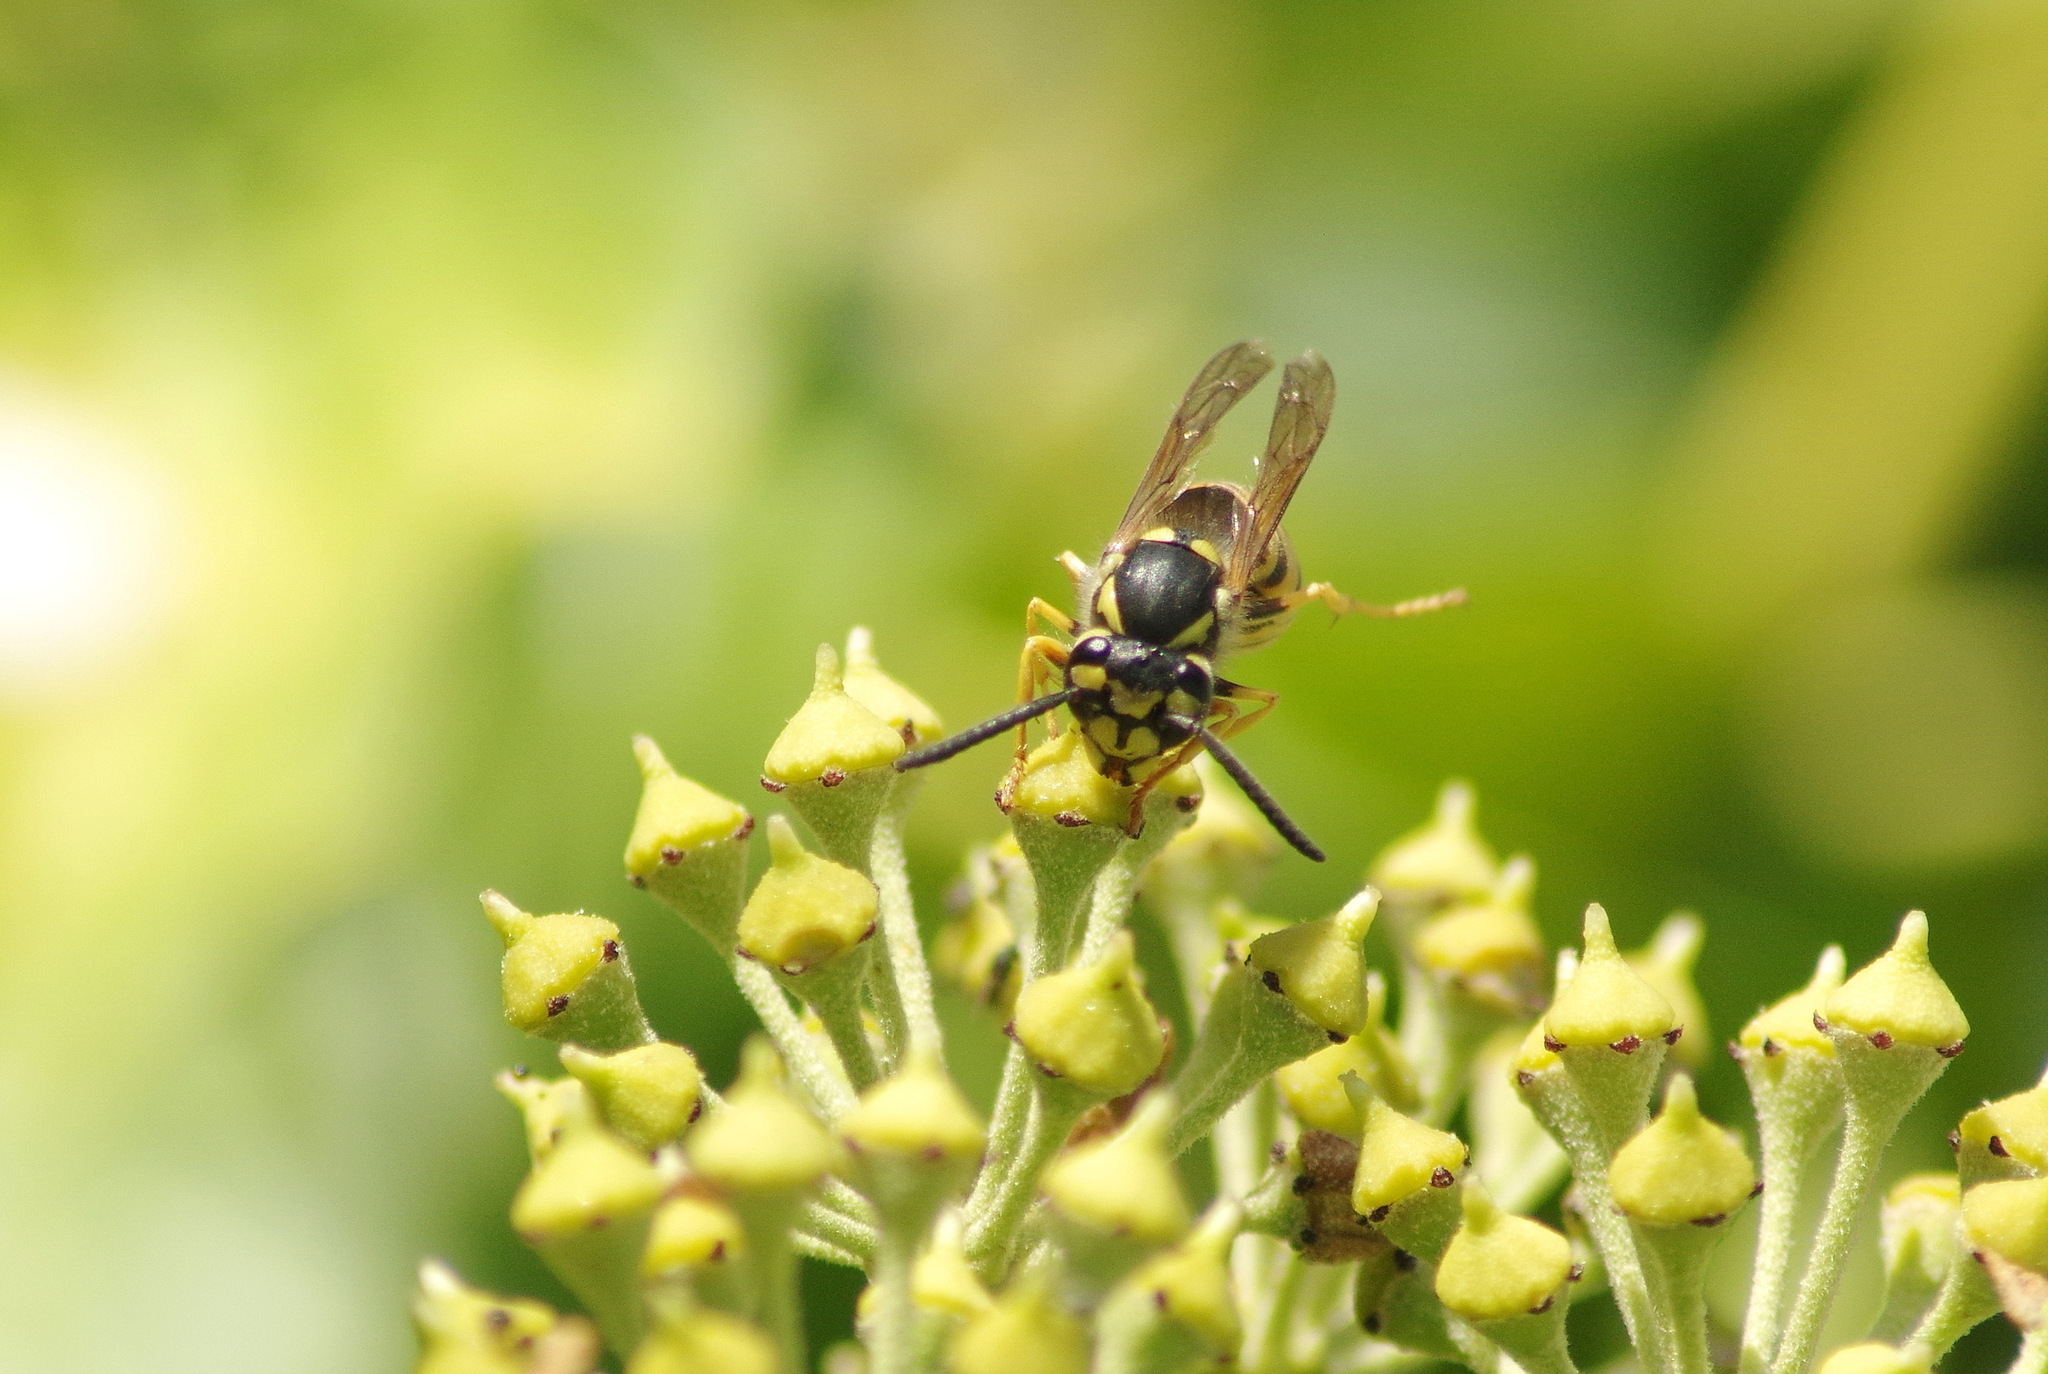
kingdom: Animalia
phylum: Arthropoda
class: Insecta
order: Hymenoptera
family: Vespidae
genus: Vespula
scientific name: Vespula germanica
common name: German wasp
